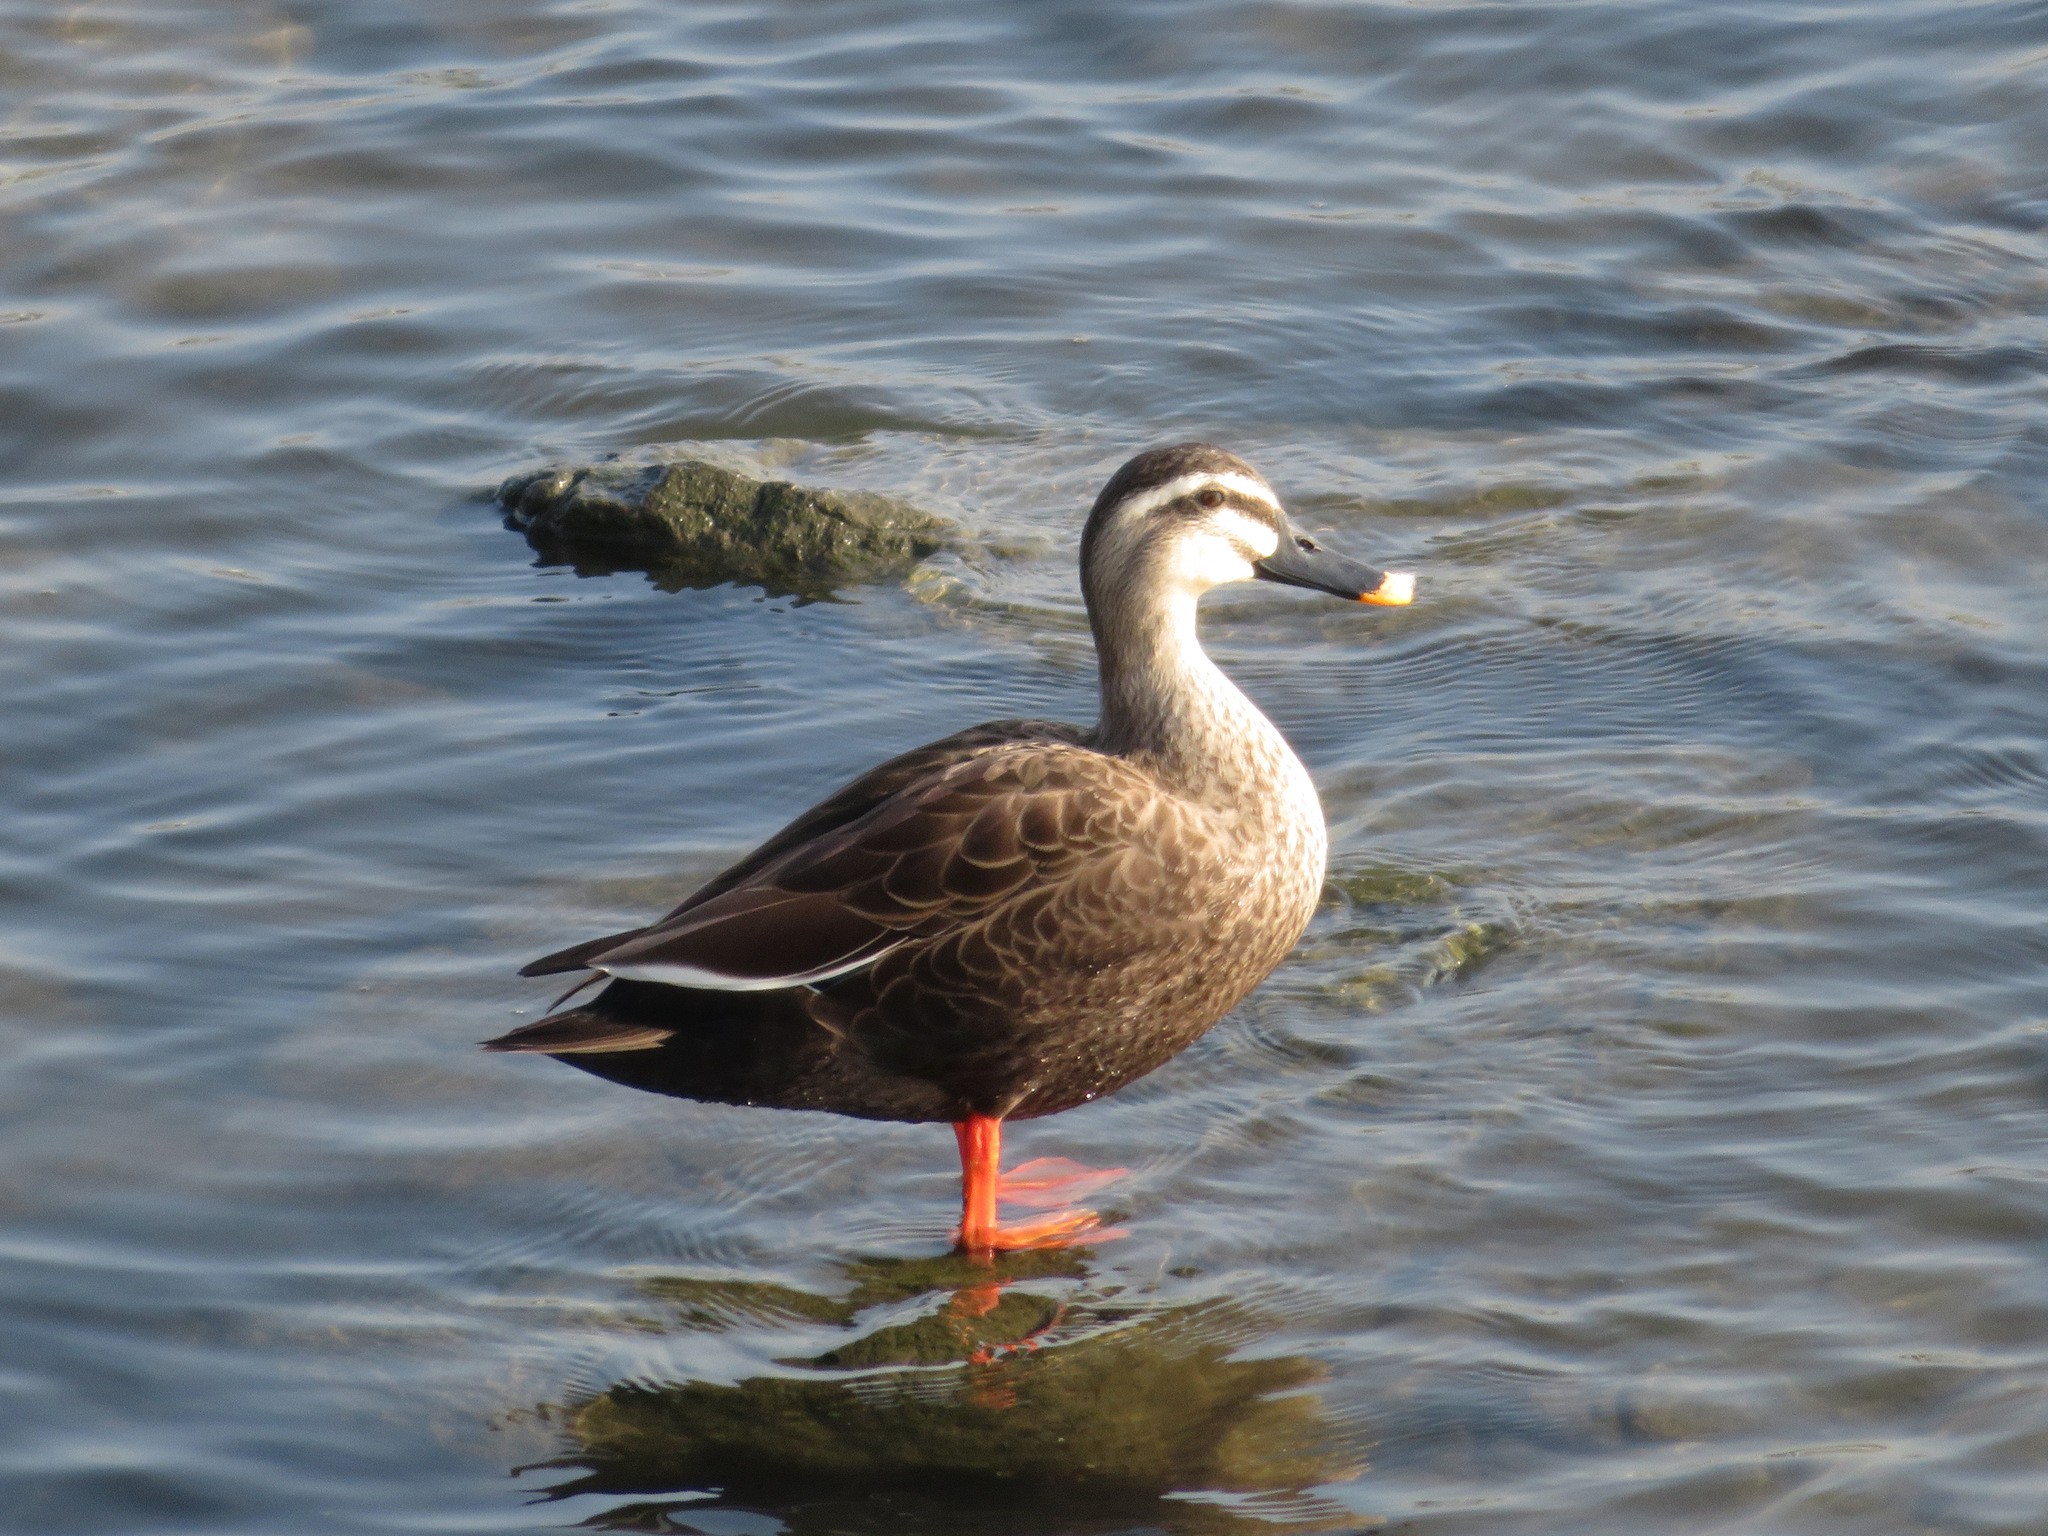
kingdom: Animalia
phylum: Chordata
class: Aves
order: Anseriformes
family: Anatidae
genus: Anas
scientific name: Anas zonorhyncha
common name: Eastern spot-billed duck
